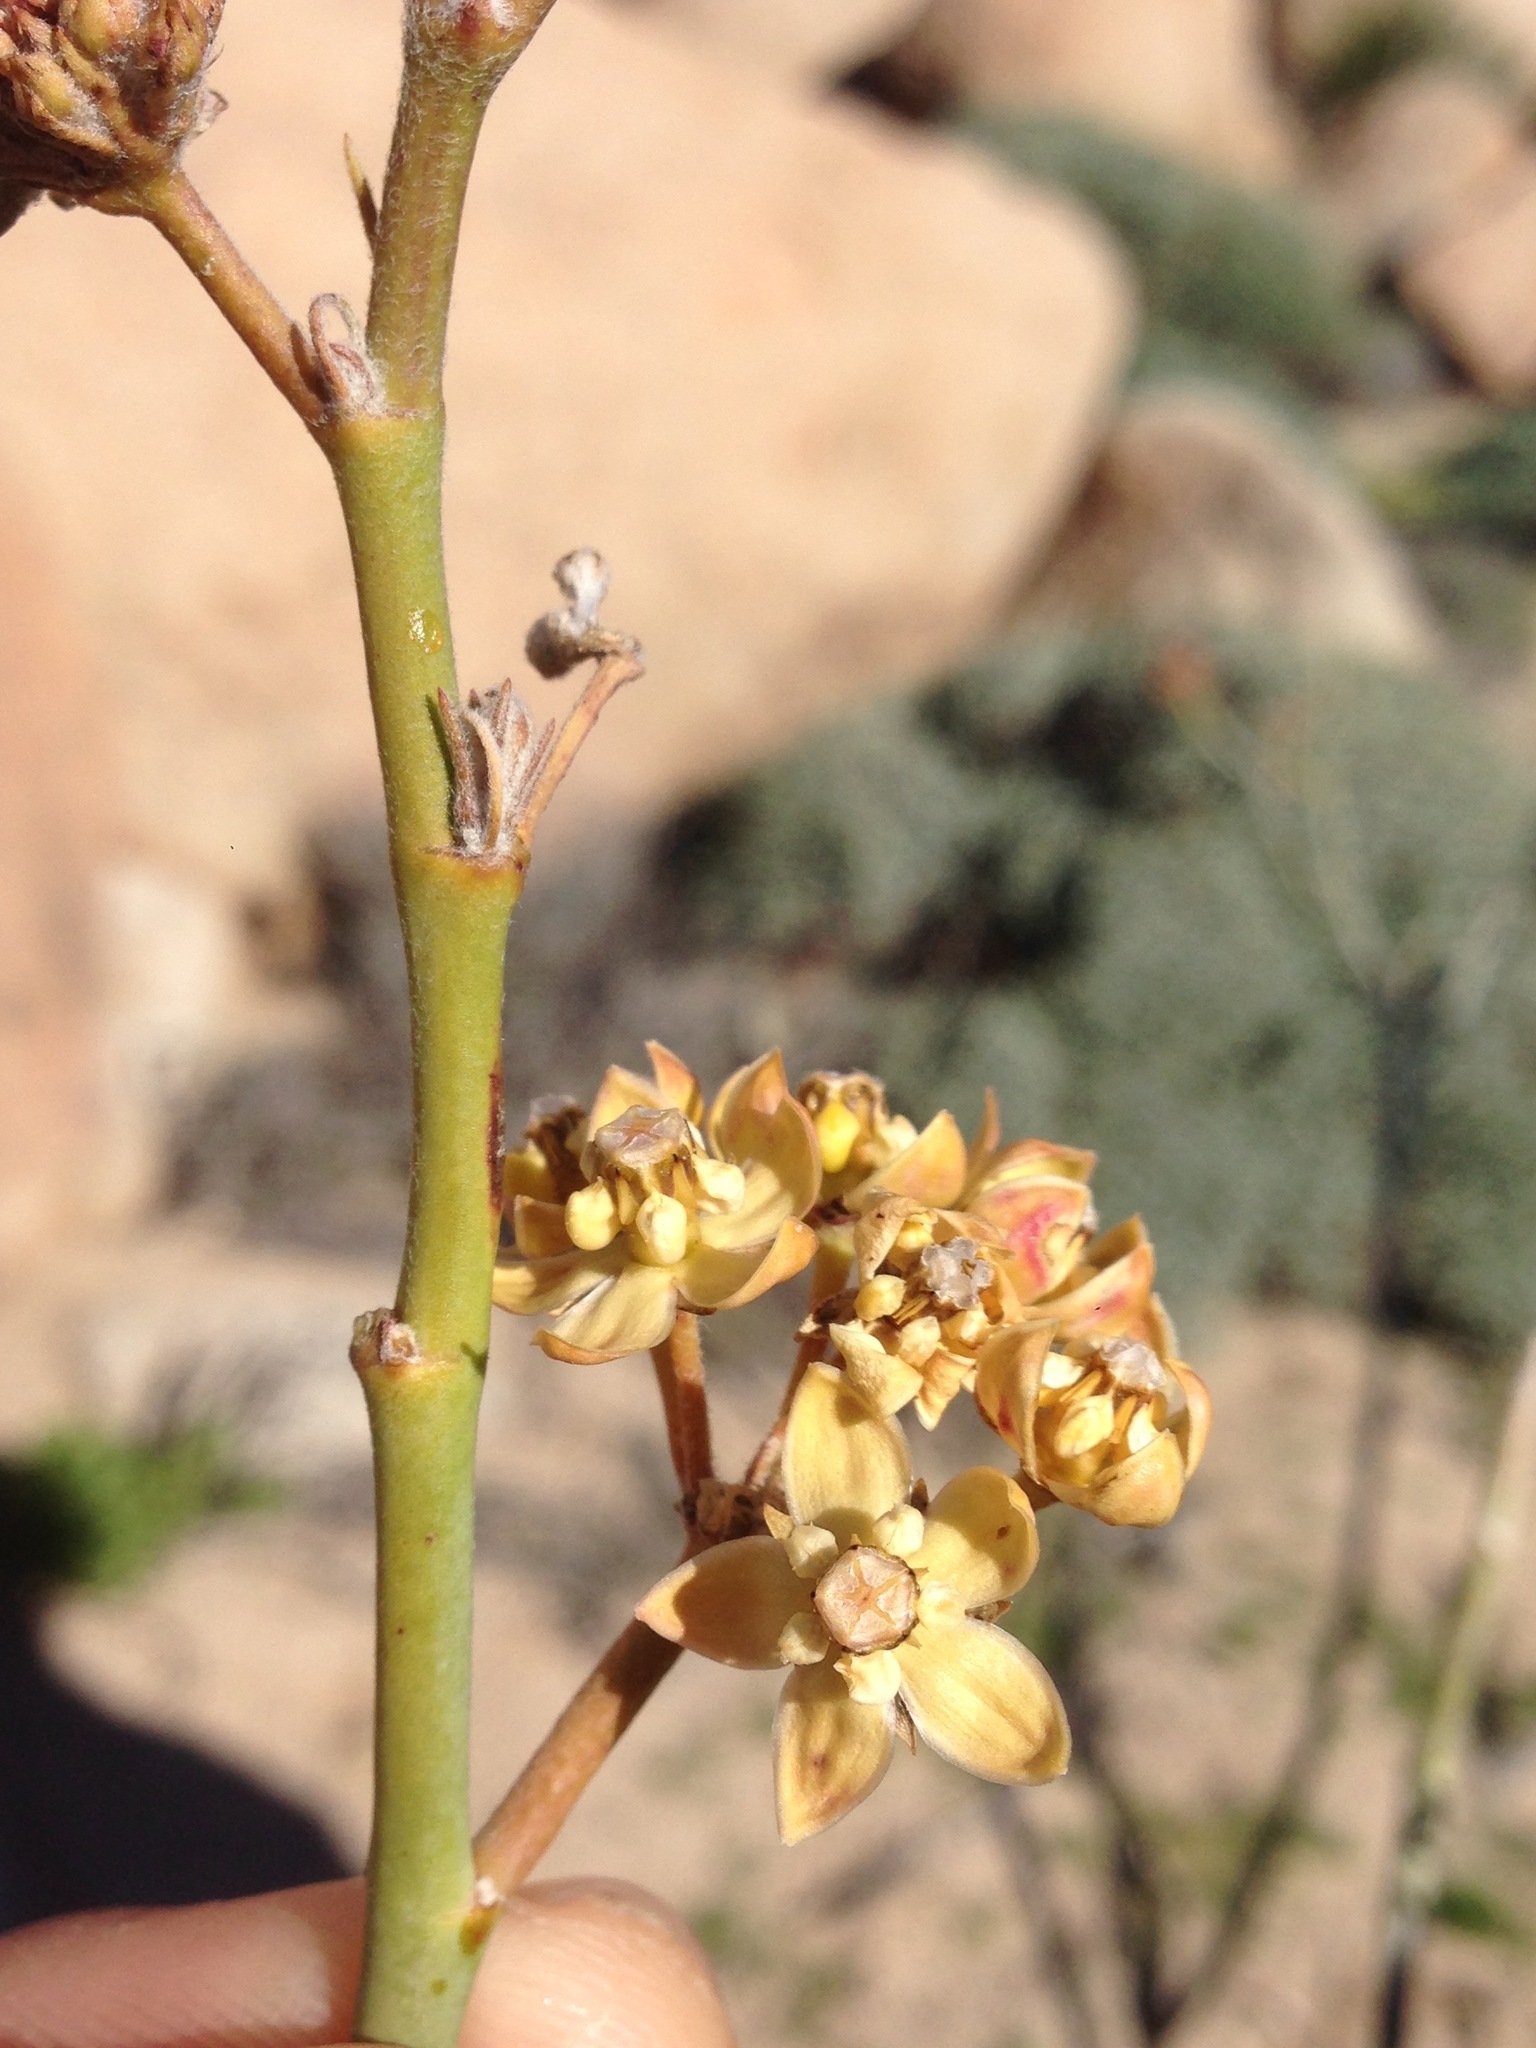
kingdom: Plantae
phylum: Tracheophyta
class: Magnoliopsida
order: Gentianales
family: Apocynaceae
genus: Asclepias
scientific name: Asclepias albicans
